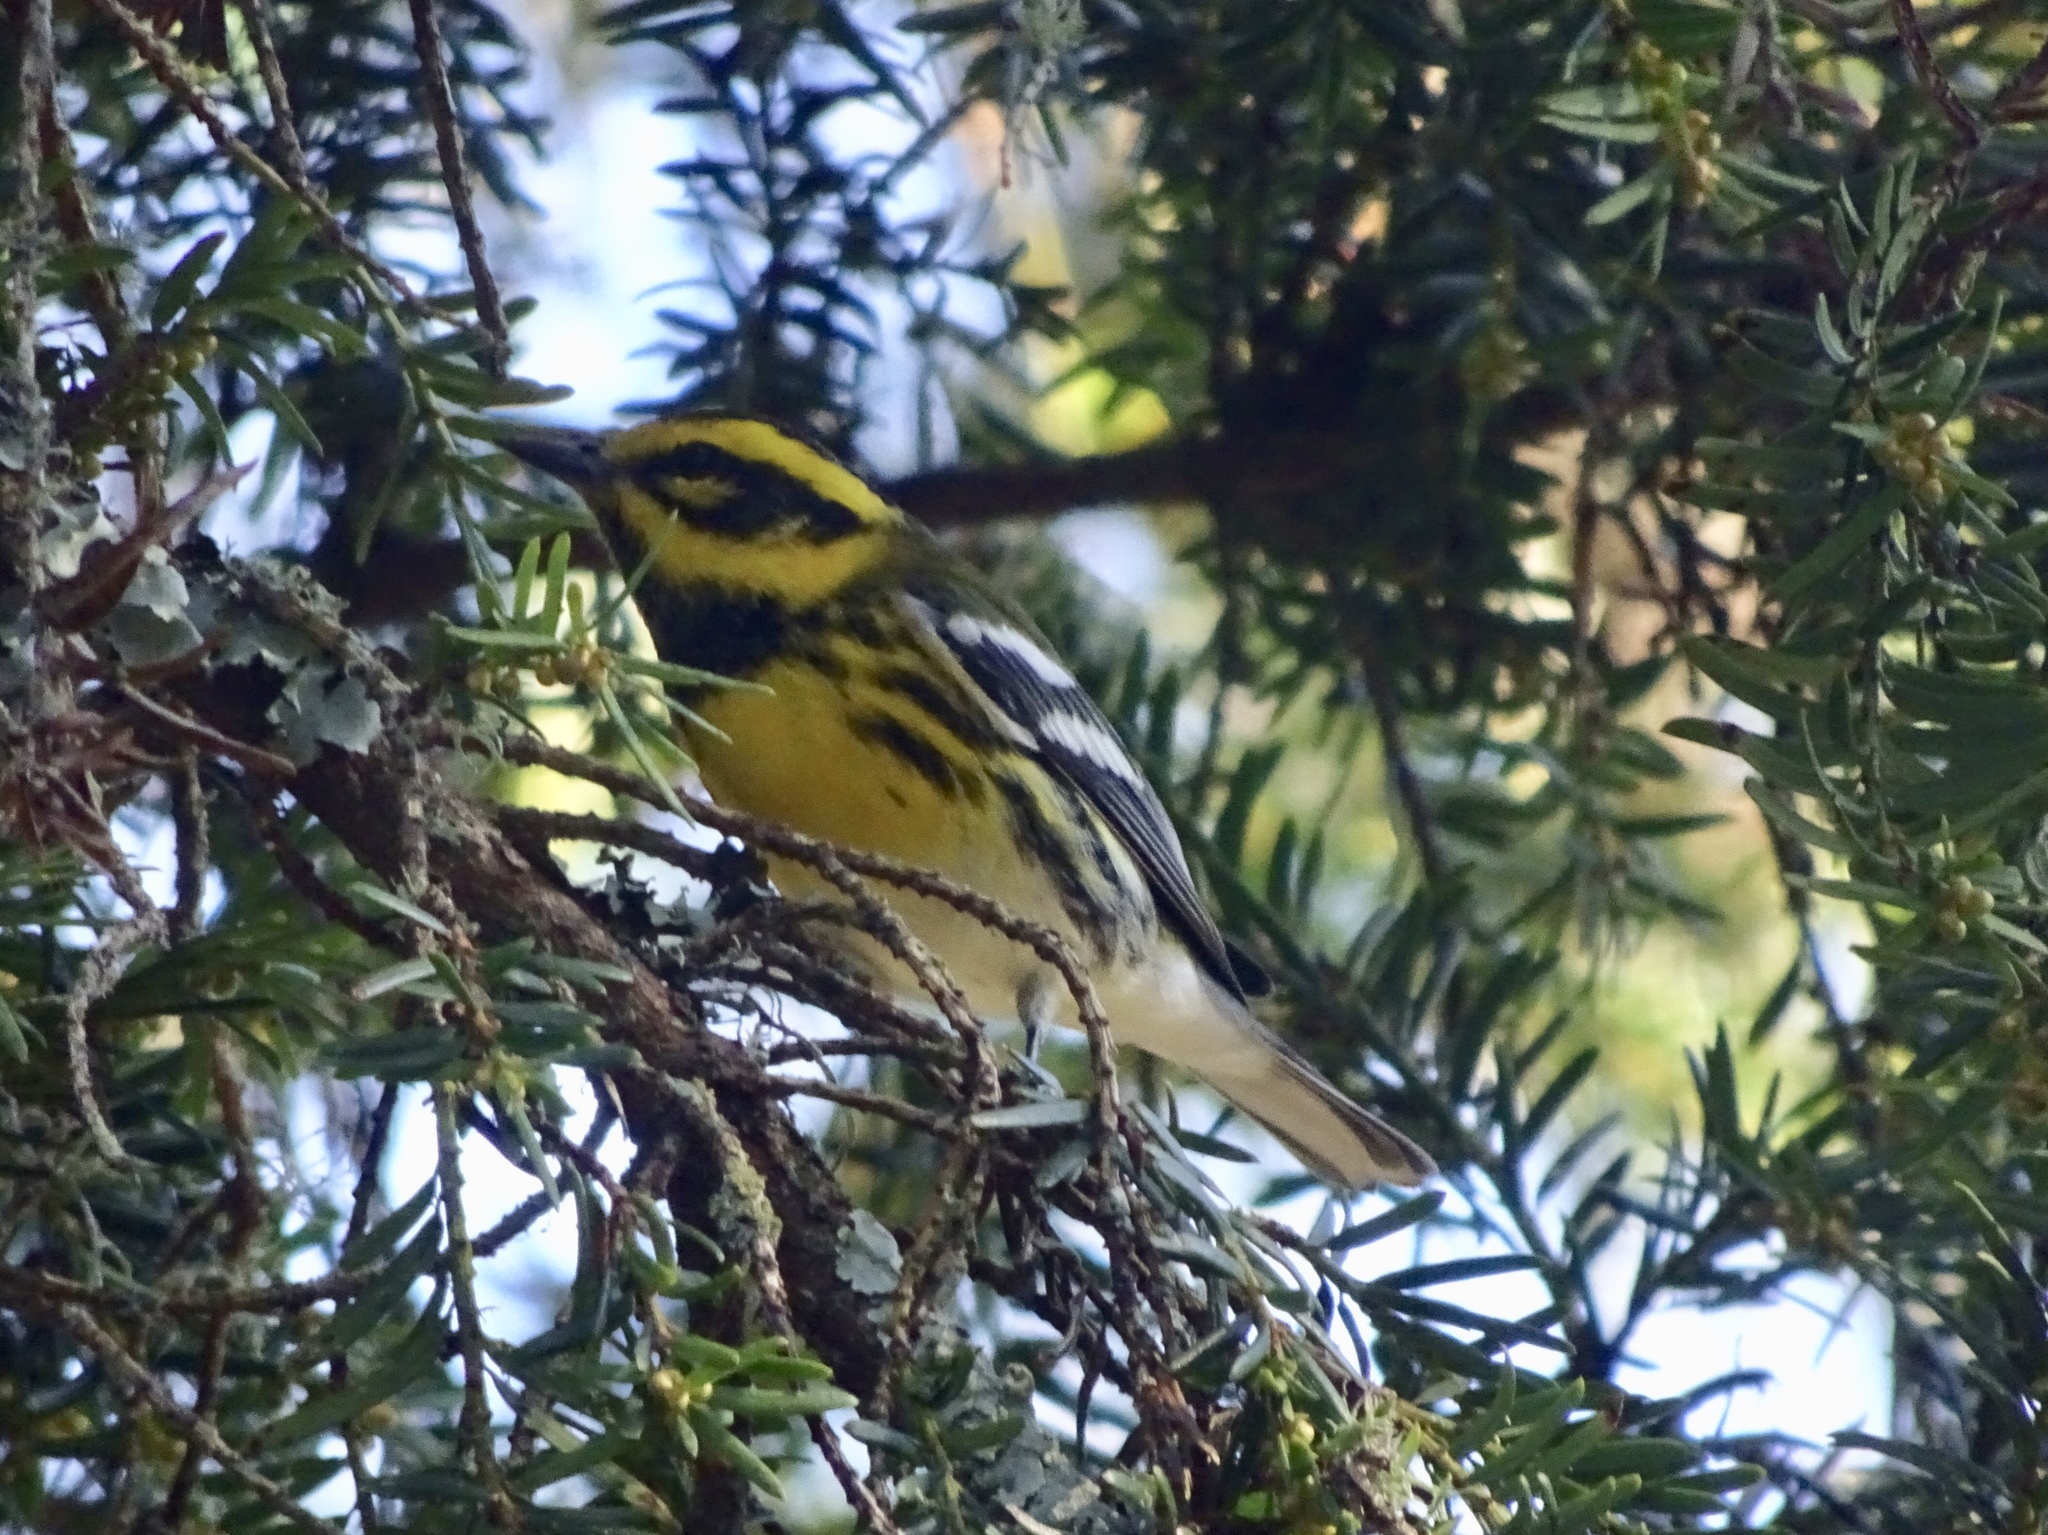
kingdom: Animalia
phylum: Chordata
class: Aves
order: Passeriformes
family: Parulidae
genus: Setophaga
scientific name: Setophaga townsendi
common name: Townsend's warbler
